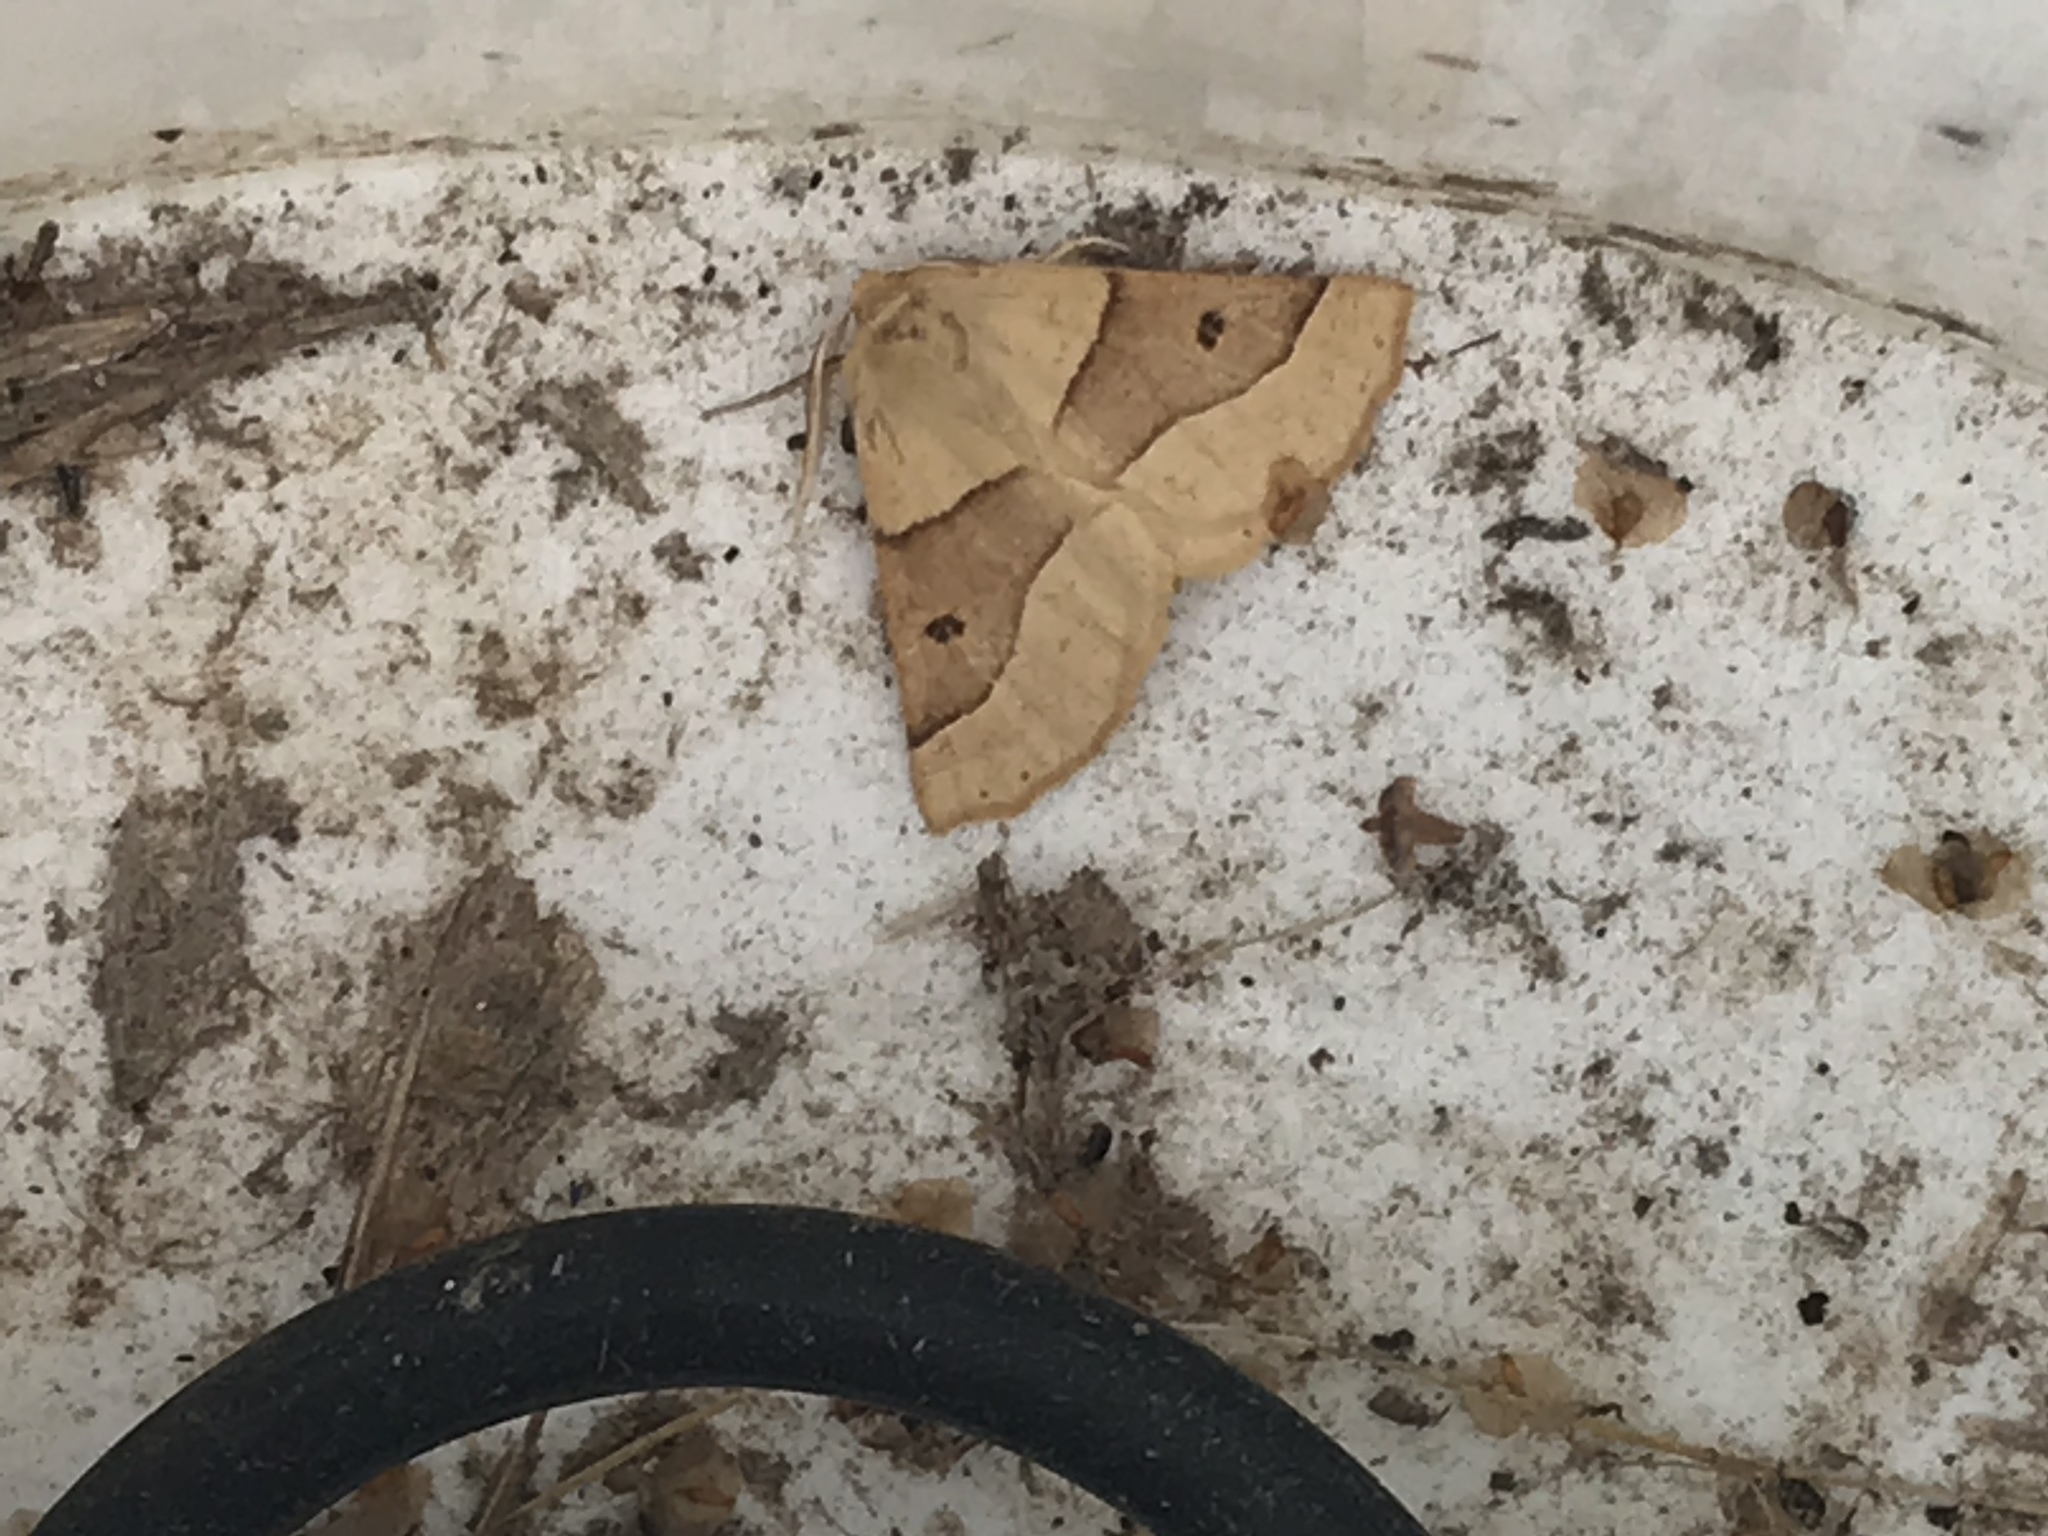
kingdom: Animalia
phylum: Arthropoda
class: Insecta
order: Lepidoptera
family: Geometridae
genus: Crocallis
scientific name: Crocallis elinguaria
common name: Scalloped oak
